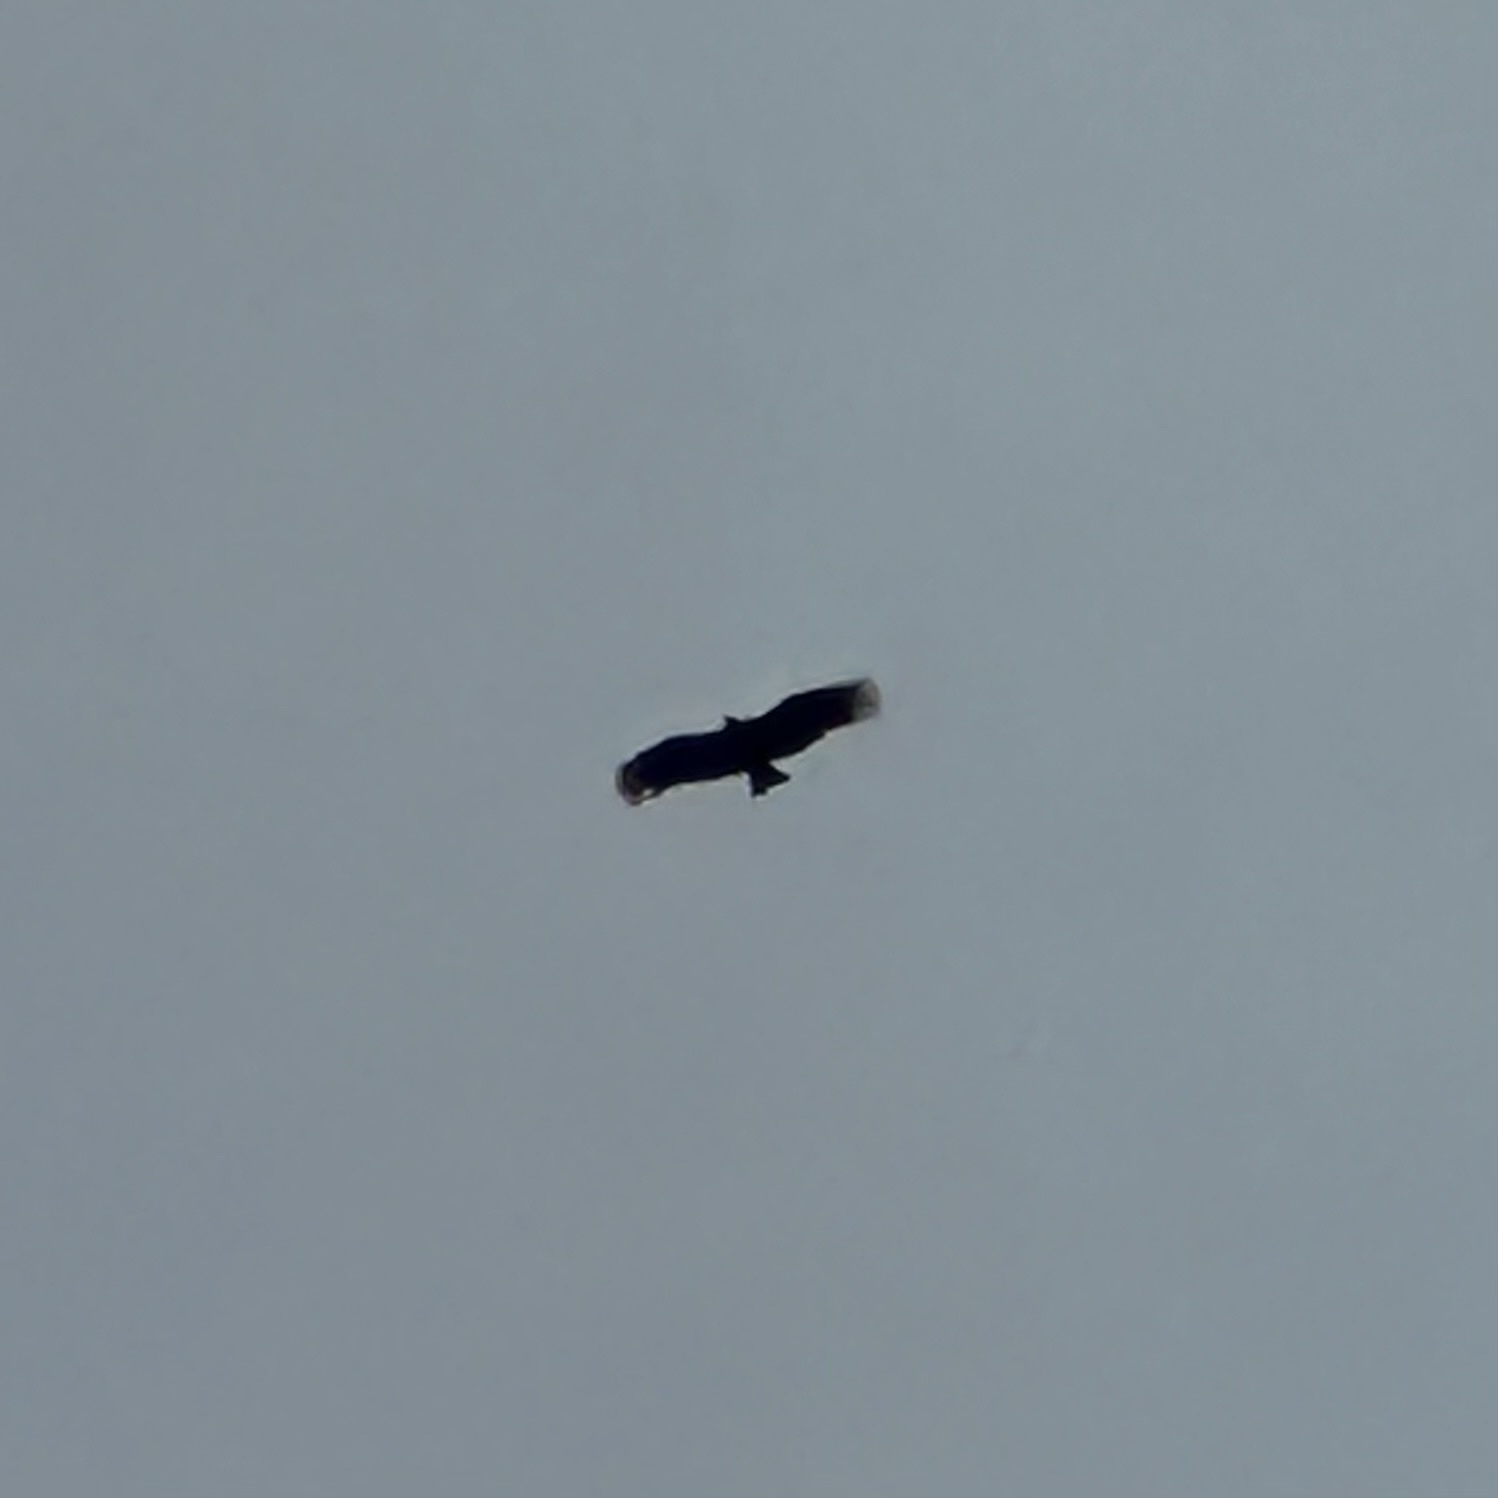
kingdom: Animalia
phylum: Chordata
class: Aves
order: Accipitriformes
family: Cathartidae
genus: Coragyps
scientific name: Coragyps atratus
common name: Black vulture
